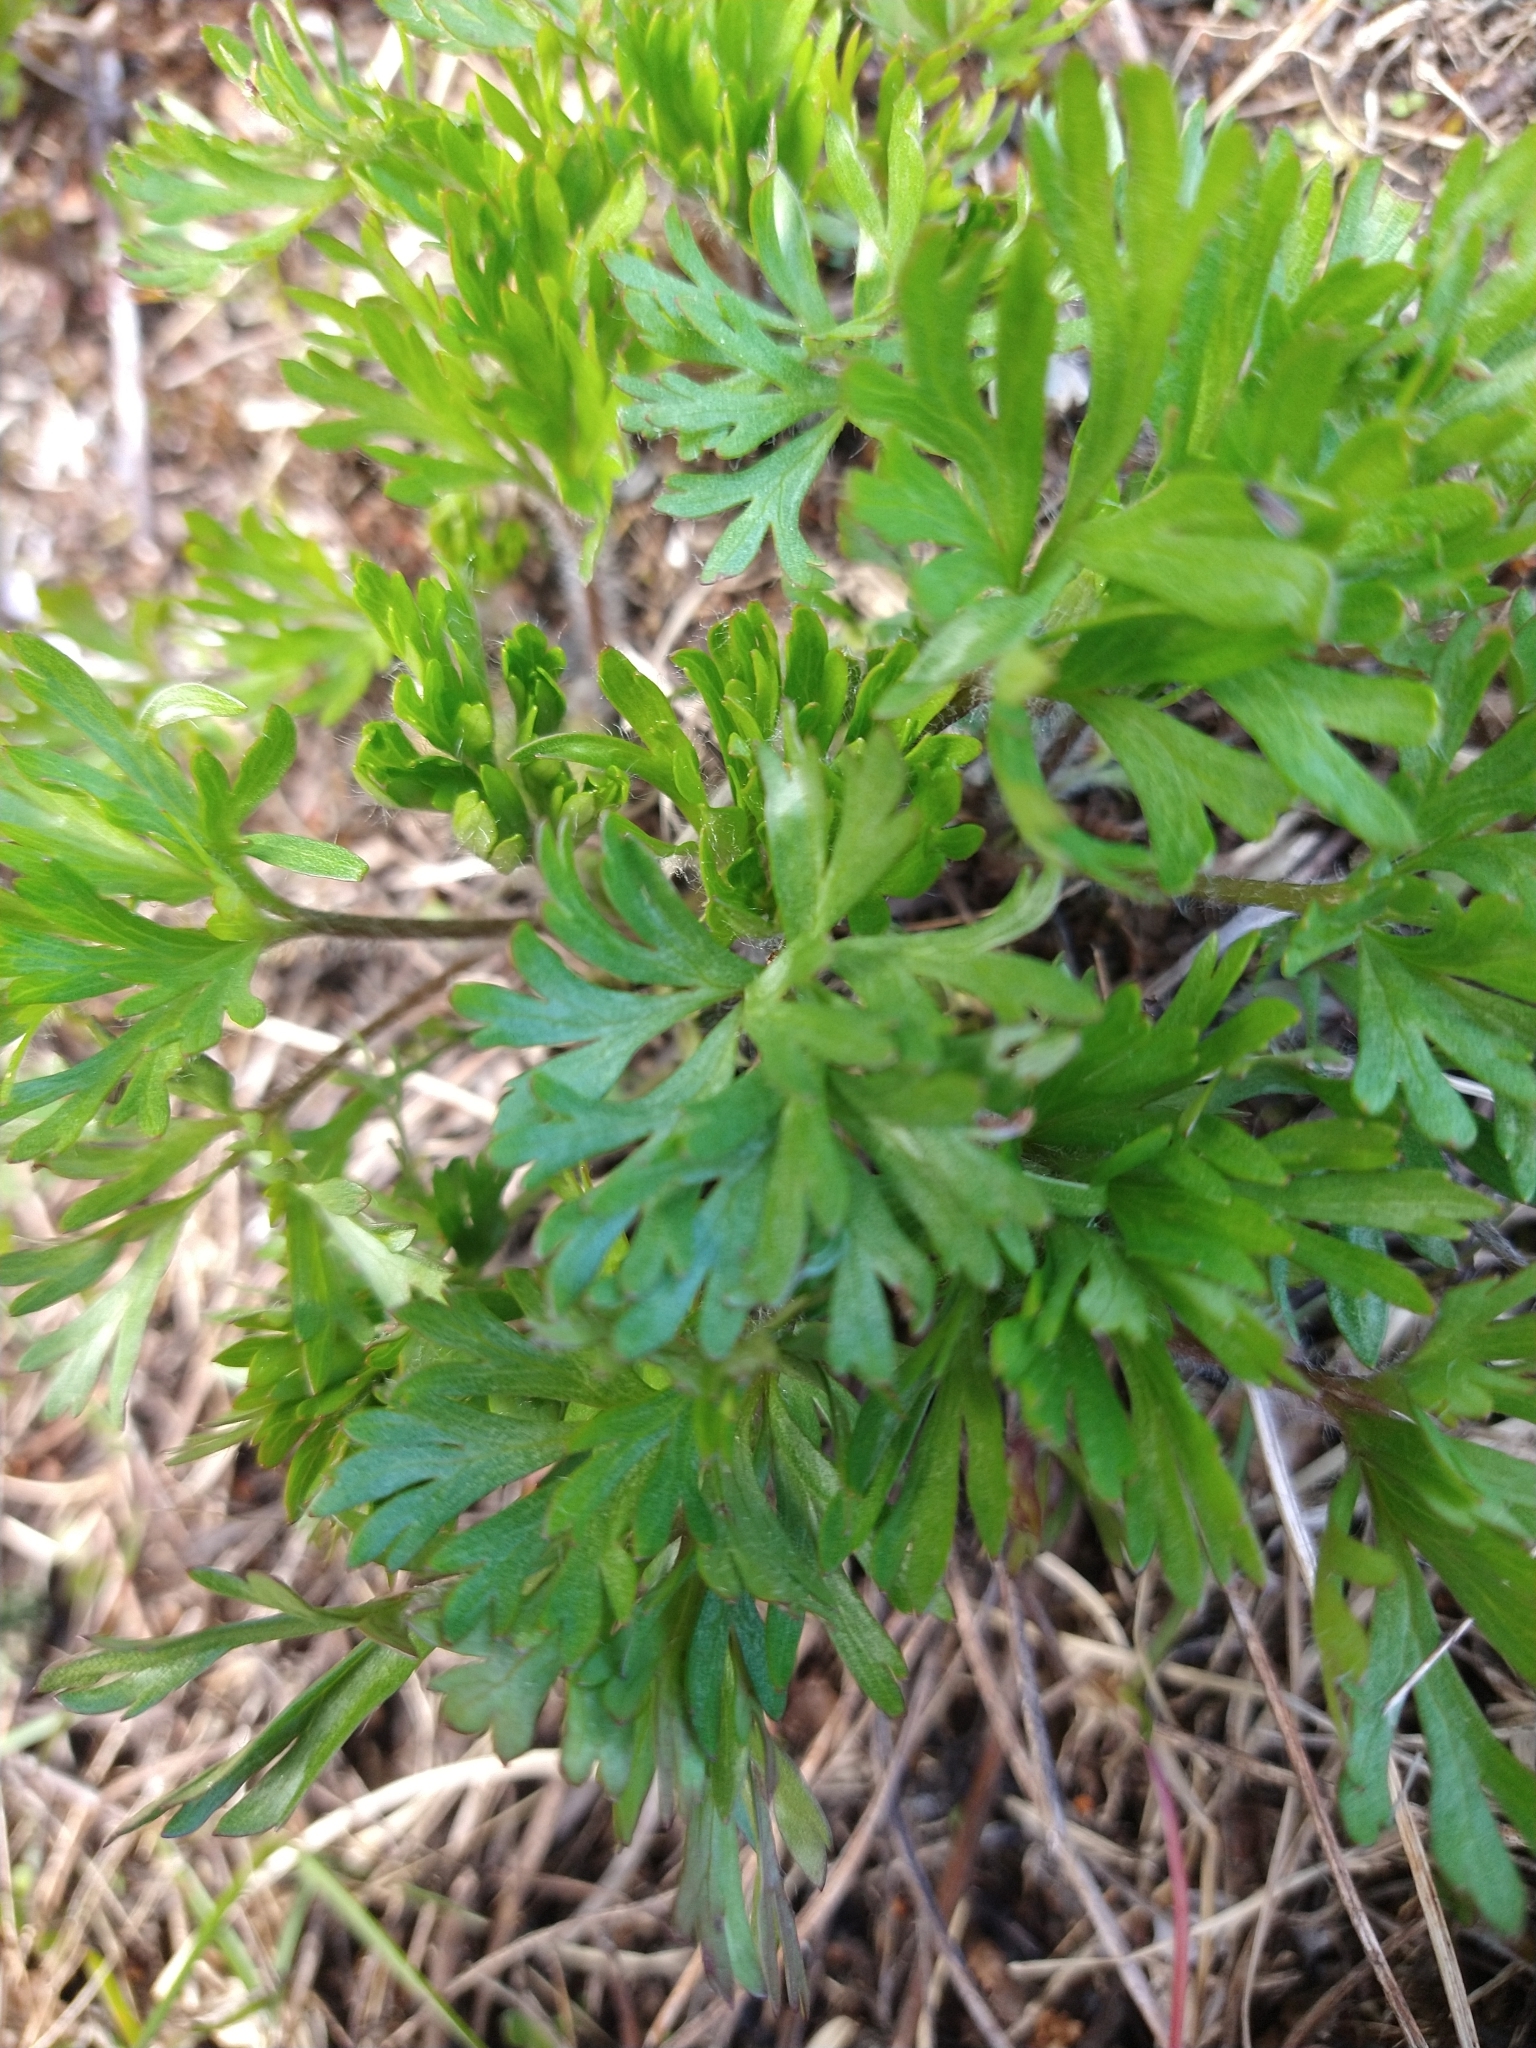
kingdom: Plantae
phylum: Tracheophyta
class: Magnoliopsida
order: Ranunculales
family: Ranunculaceae
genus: Anemone
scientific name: Anemone multifida
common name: Bird's-foot anemone
